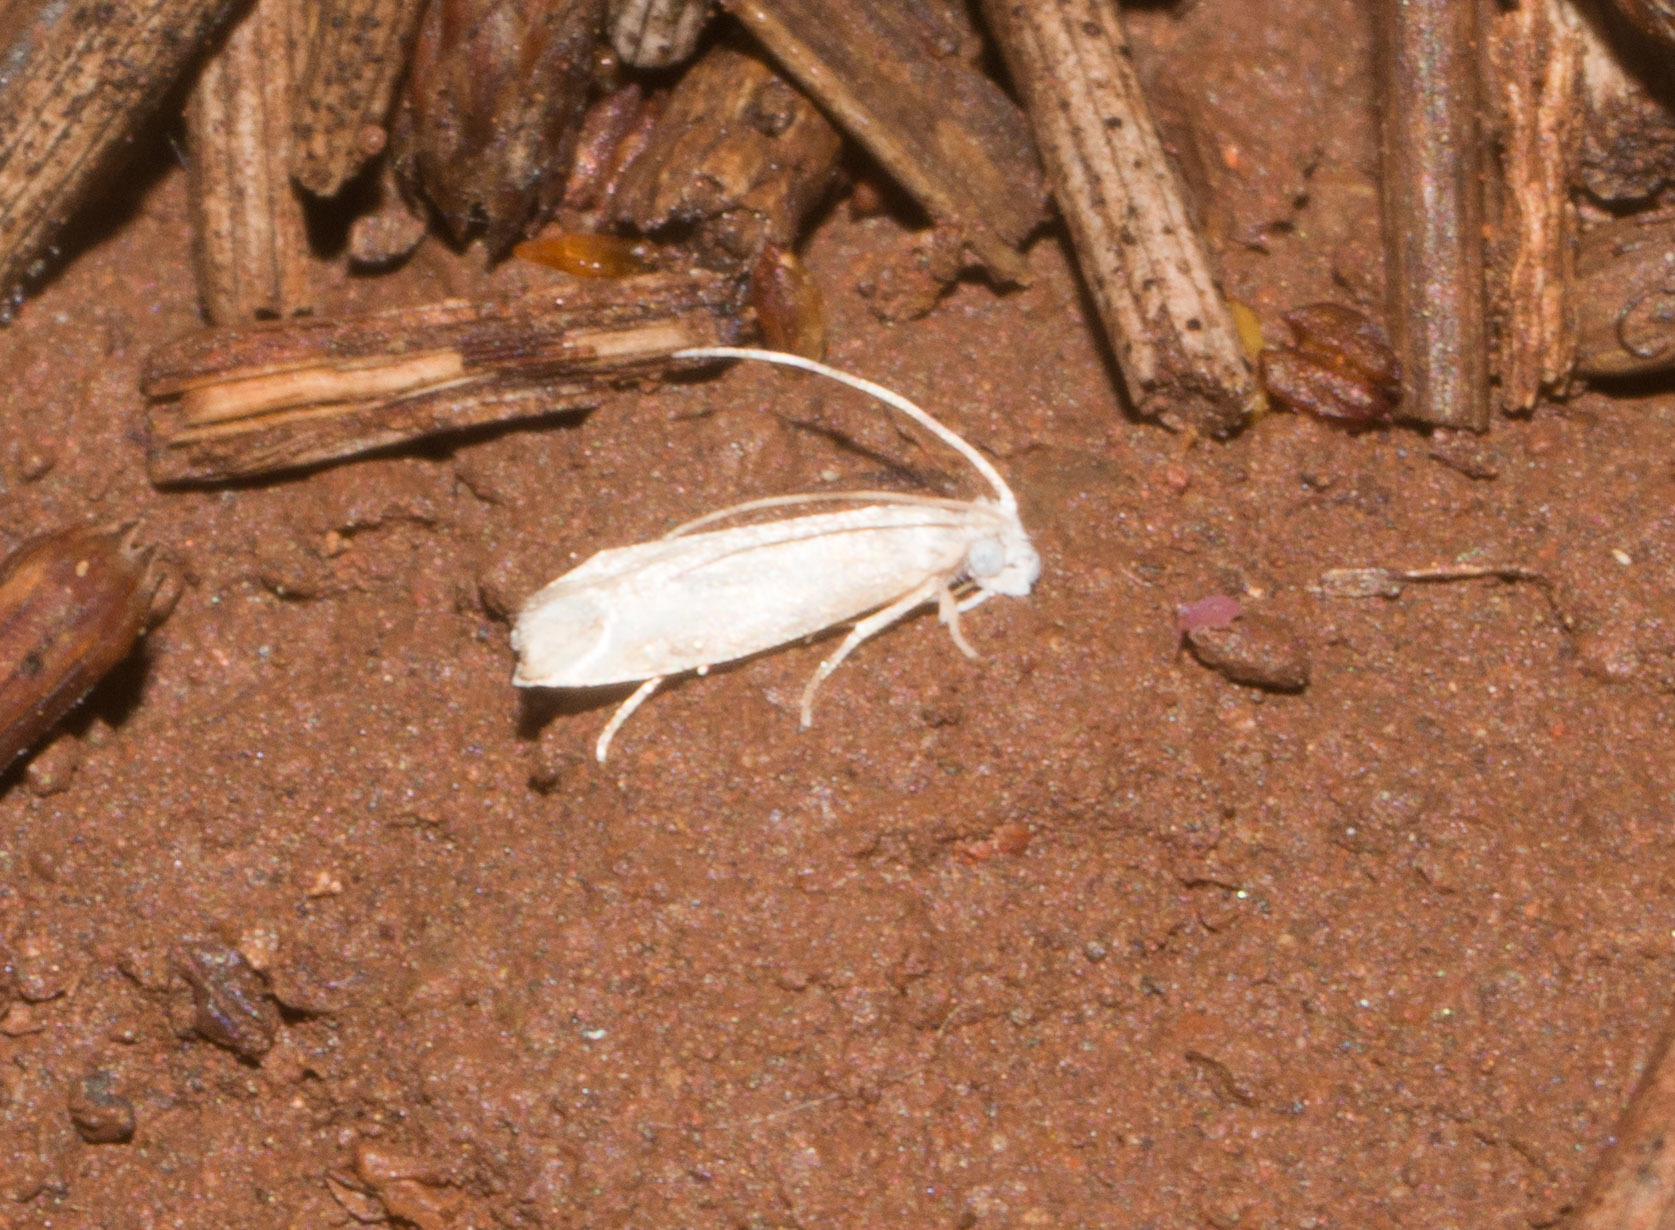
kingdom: Animalia
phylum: Arthropoda
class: Insecta
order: Lepidoptera
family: Dryadaulidae
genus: Dryadaula
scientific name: Dryadaula terpsichorella
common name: Dancing moth
